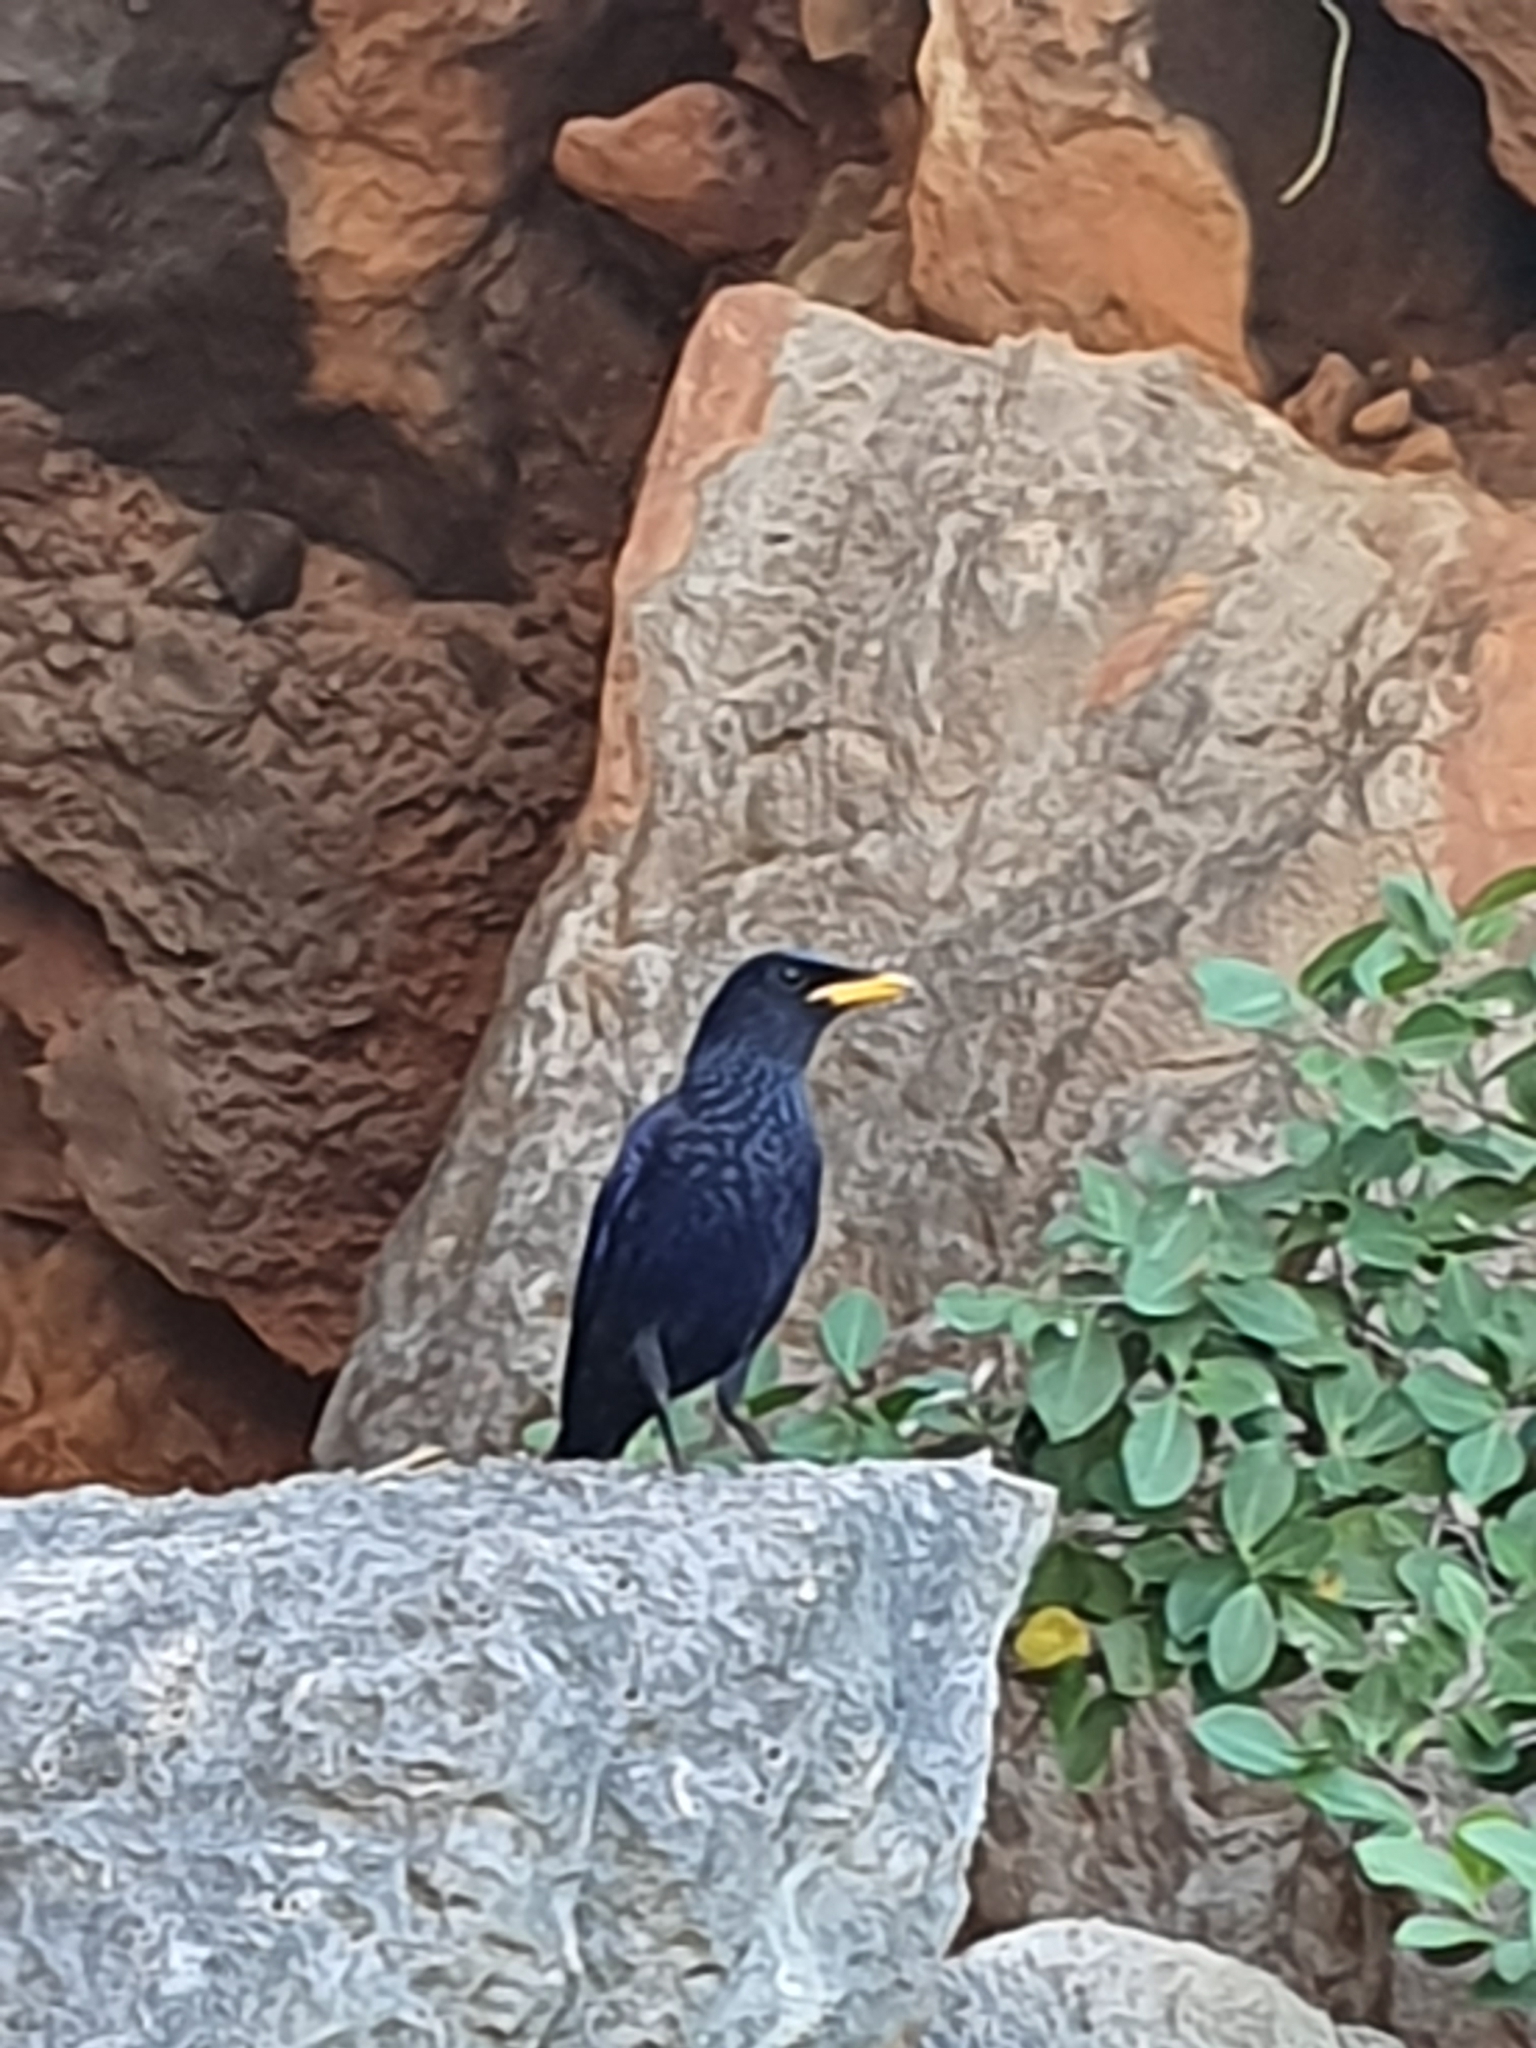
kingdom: Animalia
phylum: Chordata
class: Aves
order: Passeriformes
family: Muscicapidae
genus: Myophonus
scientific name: Myophonus caeruleus
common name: Blue whistling-thrush
